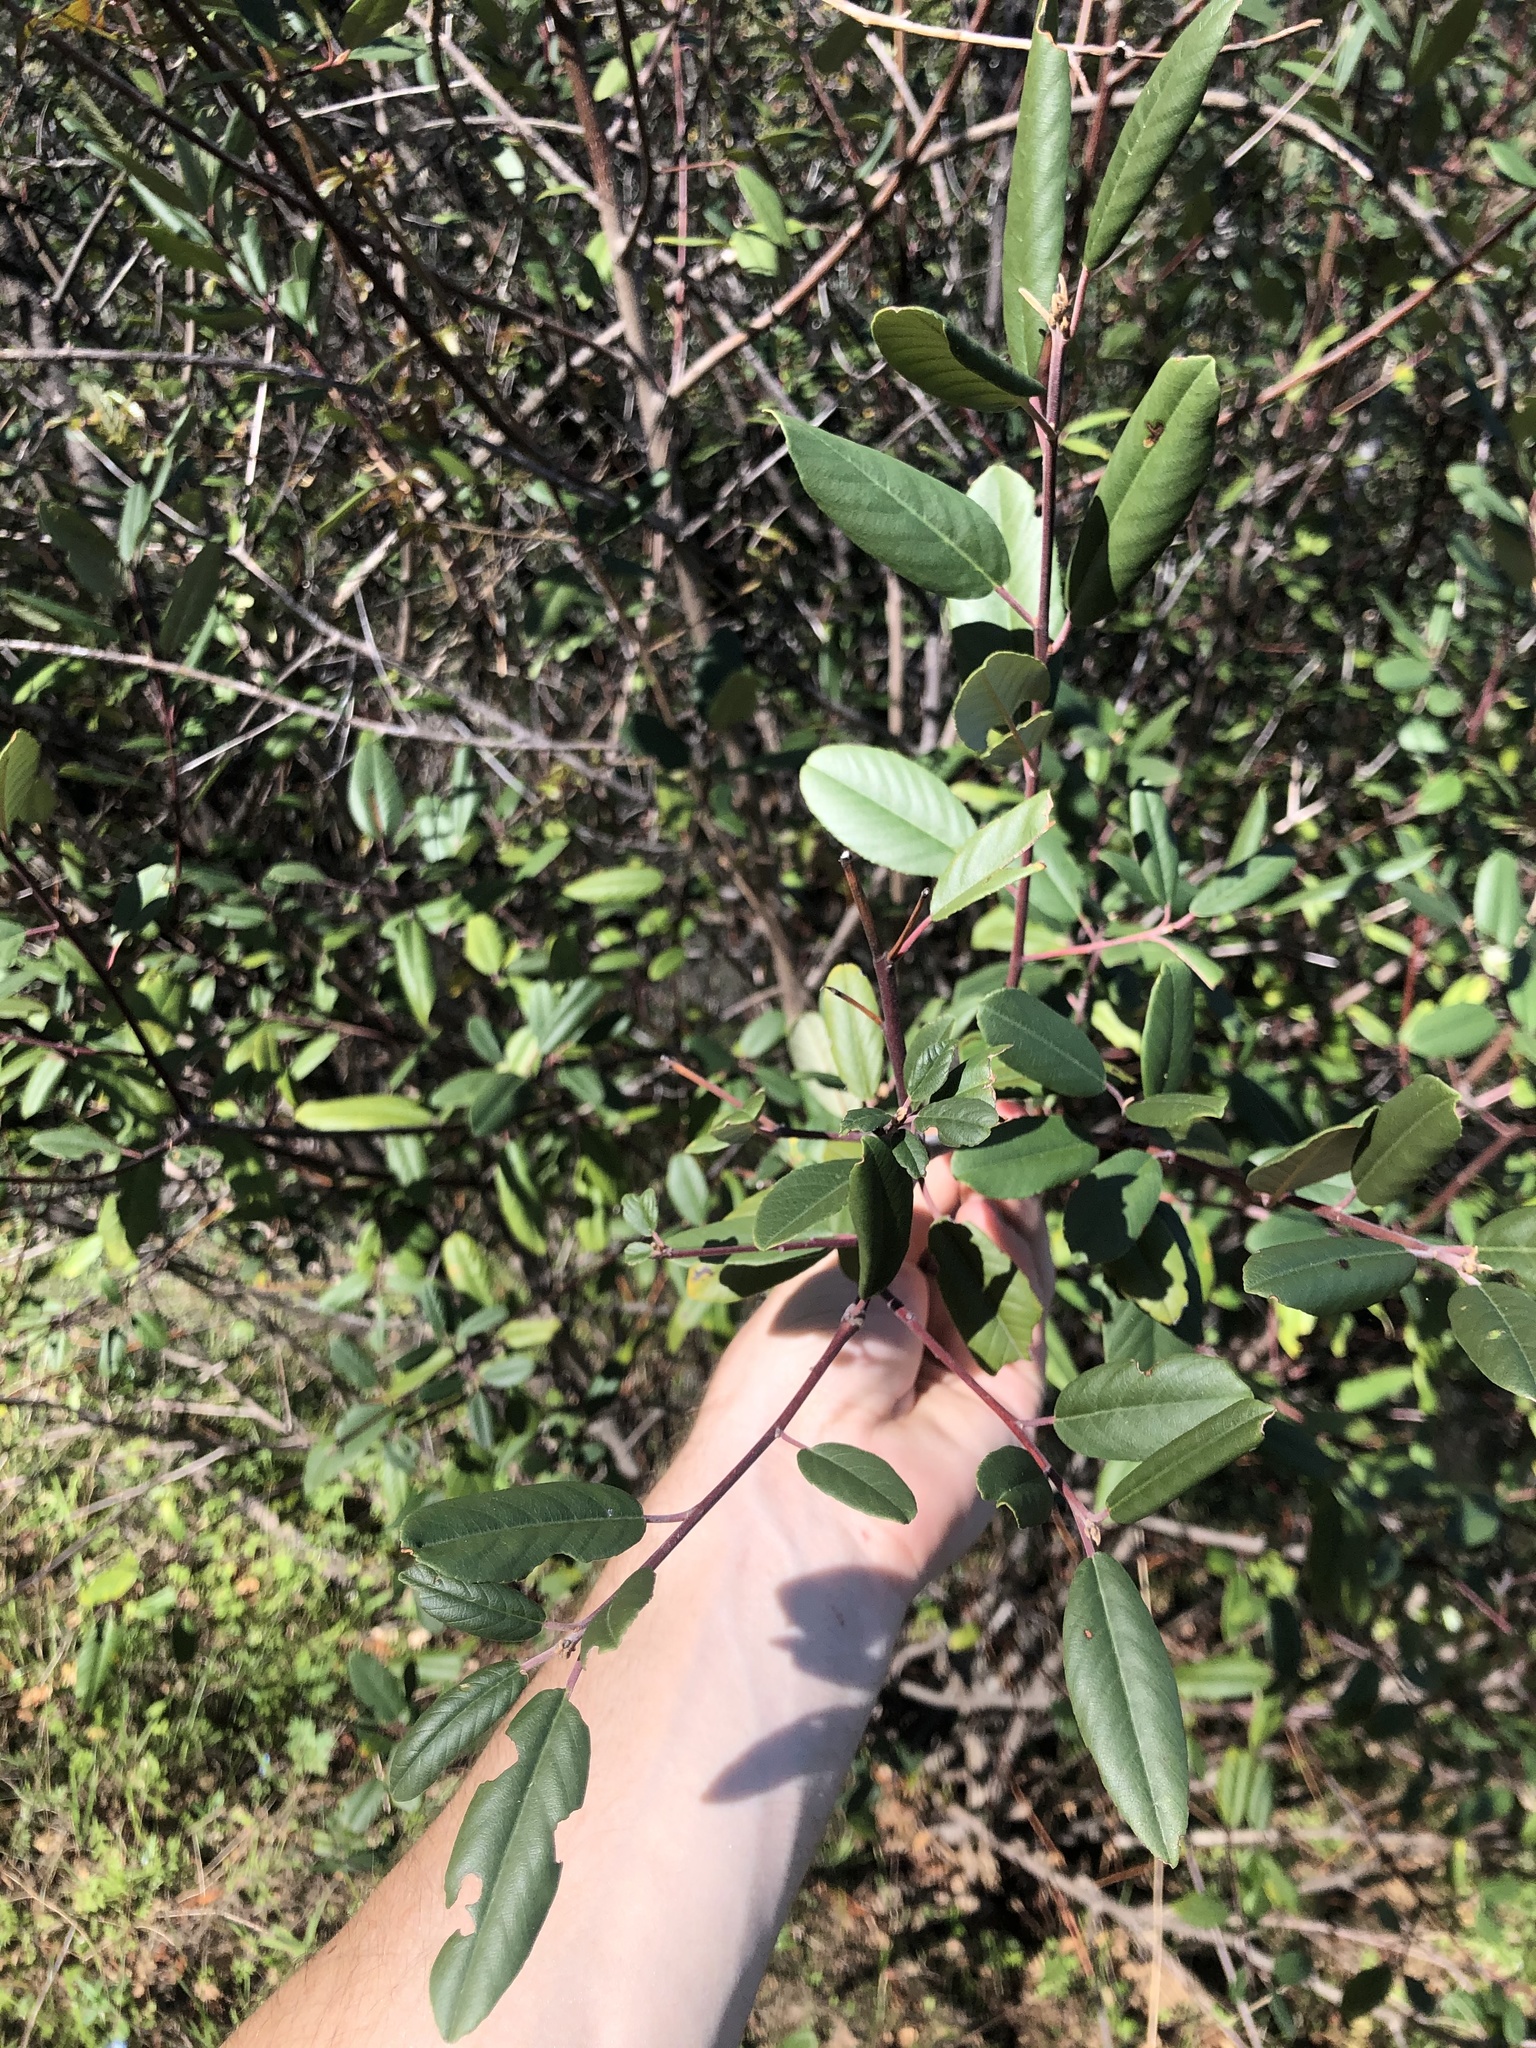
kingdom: Plantae
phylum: Tracheophyta
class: Magnoliopsida
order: Rosales
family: Rhamnaceae
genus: Frangula
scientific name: Frangula californica
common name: California buckthorn
